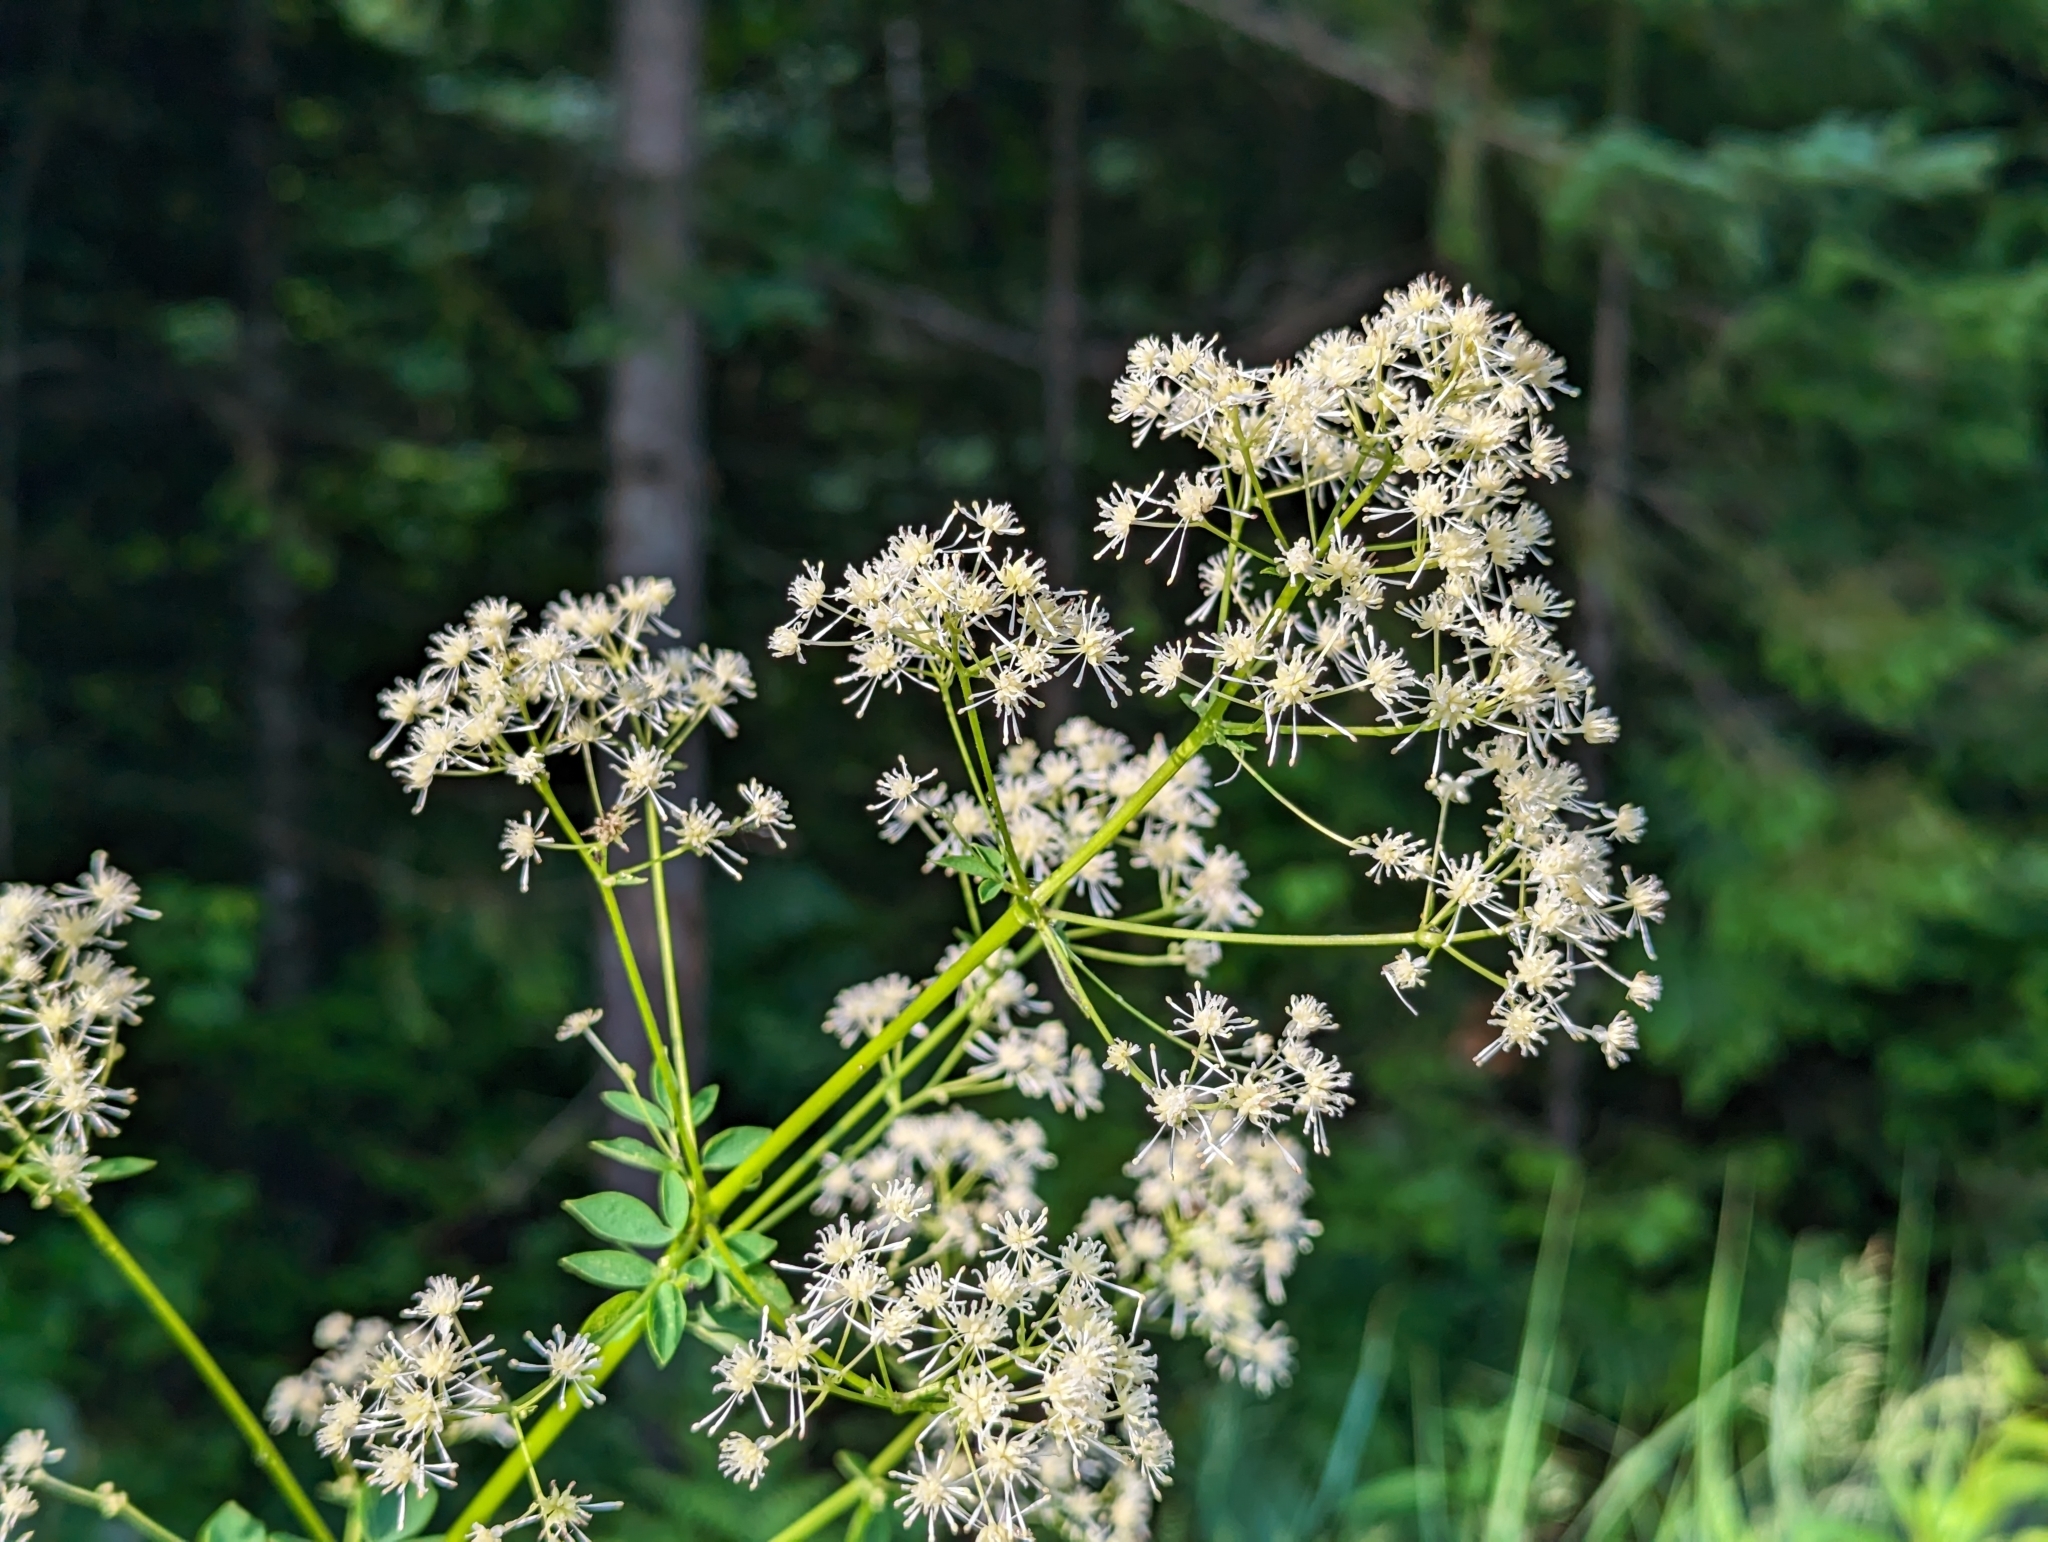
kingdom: Plantae
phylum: Tracheophyta
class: Magnoliopsida
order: Ranunculales
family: Ranunculaceae
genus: Thalictrum
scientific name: Thalictrum pubescens
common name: King-of-the-meadow
